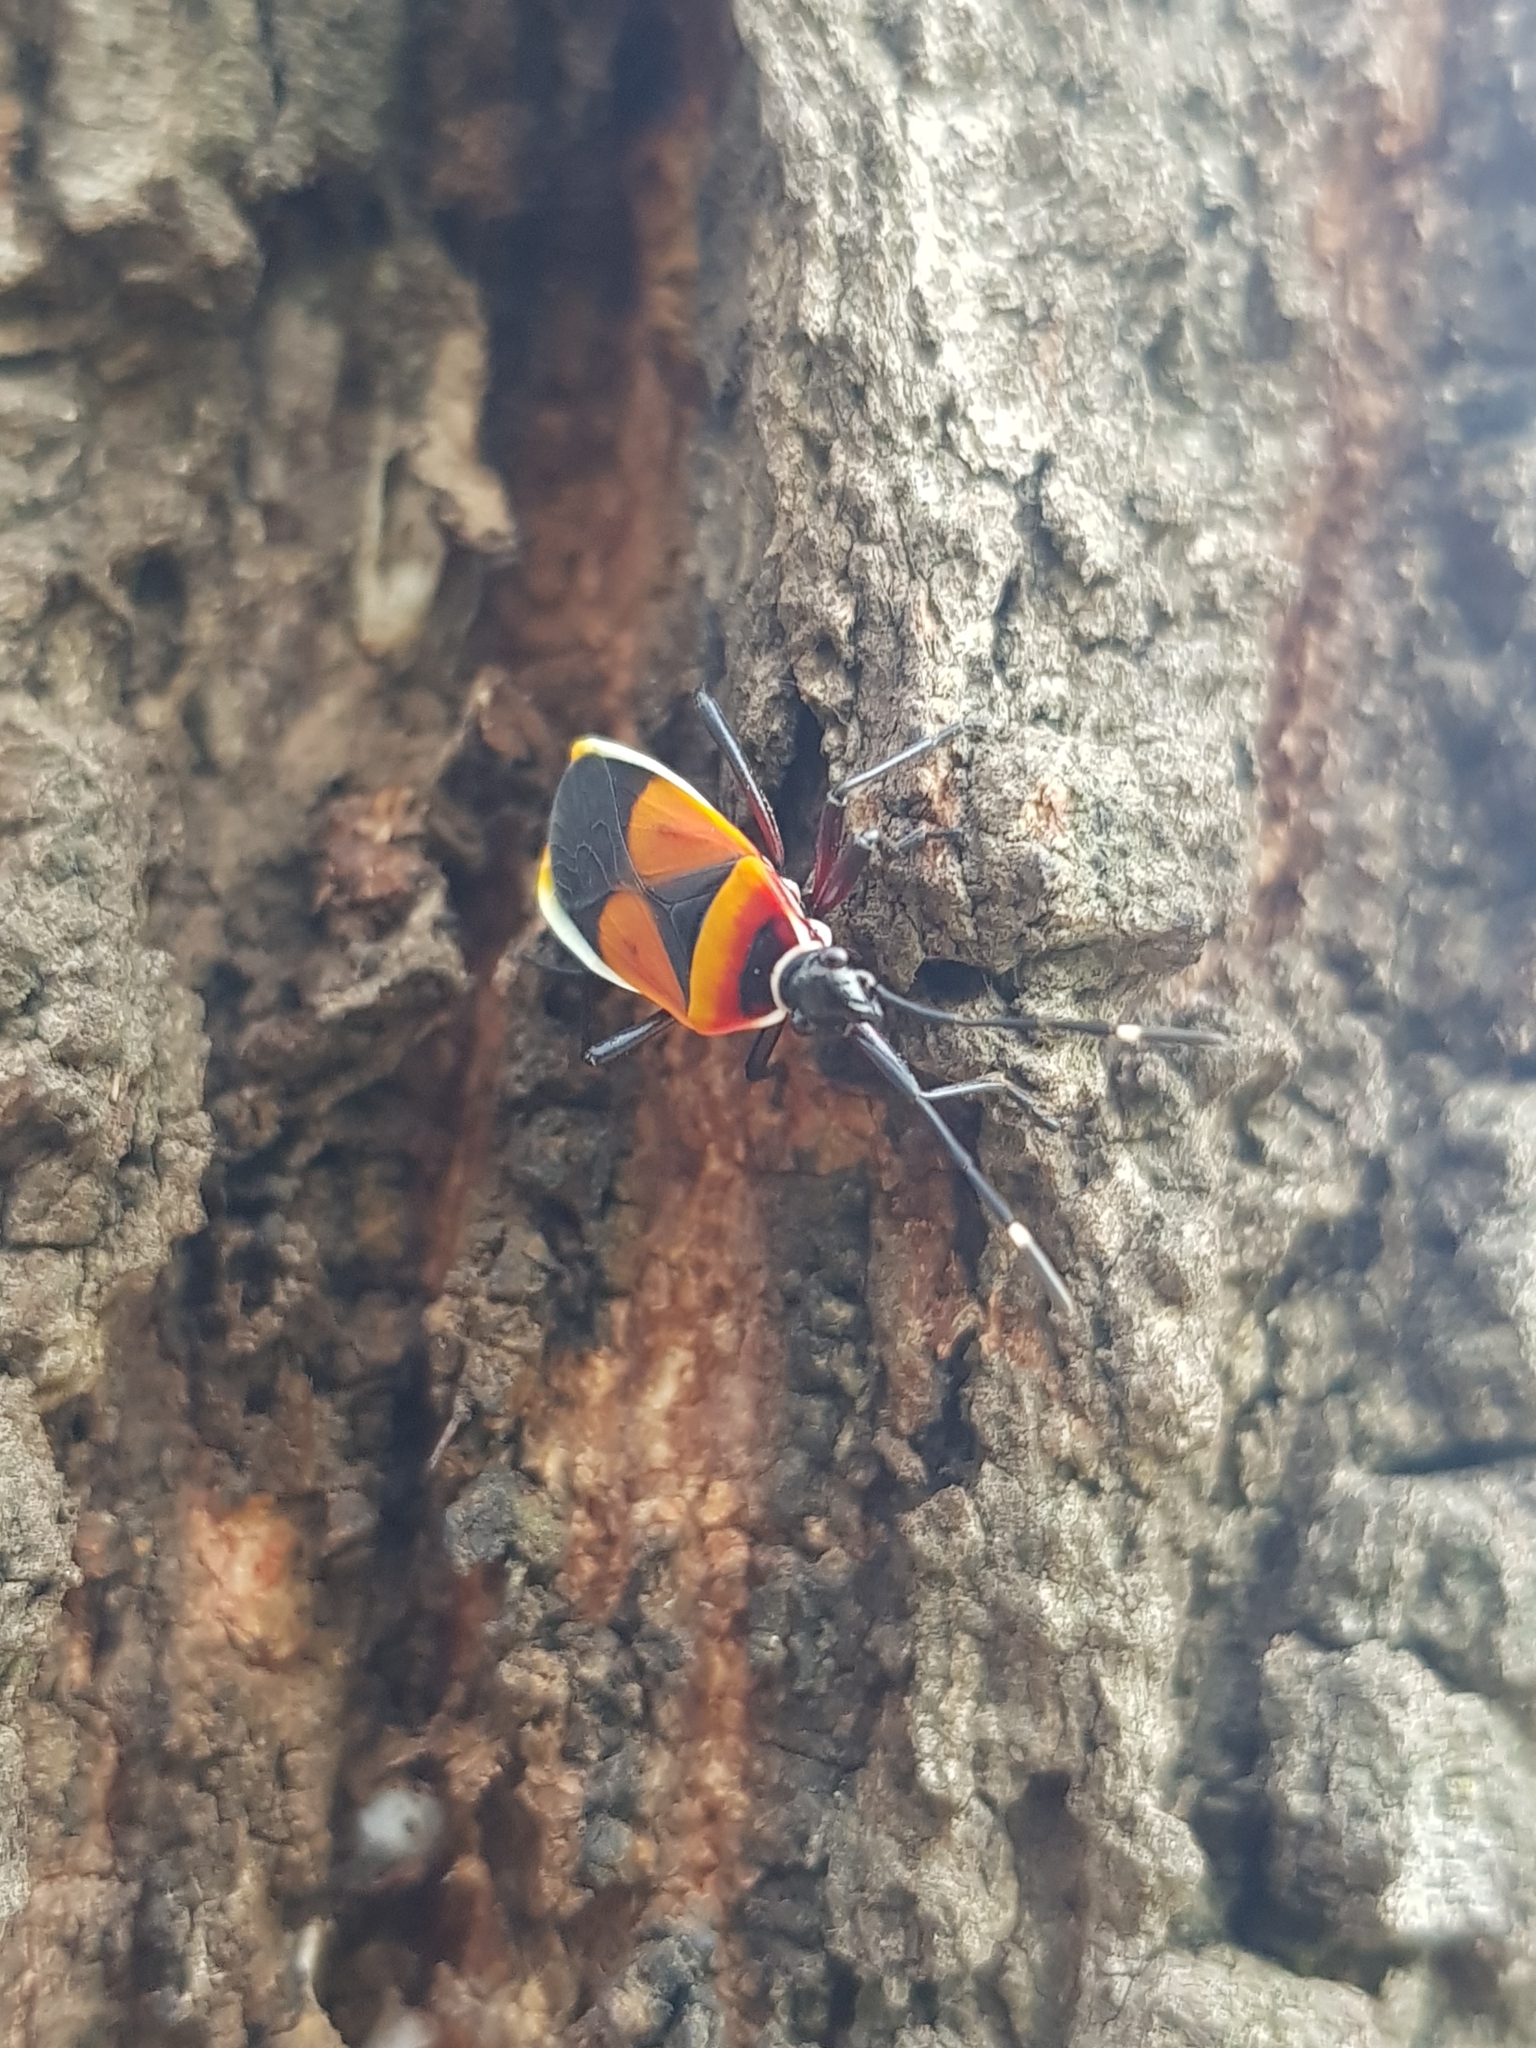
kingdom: Animalia
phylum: Arthropoda
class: Insecta
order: Hemiptera
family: Pyrrhocoridae
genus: Dindymus
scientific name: Dindymus
